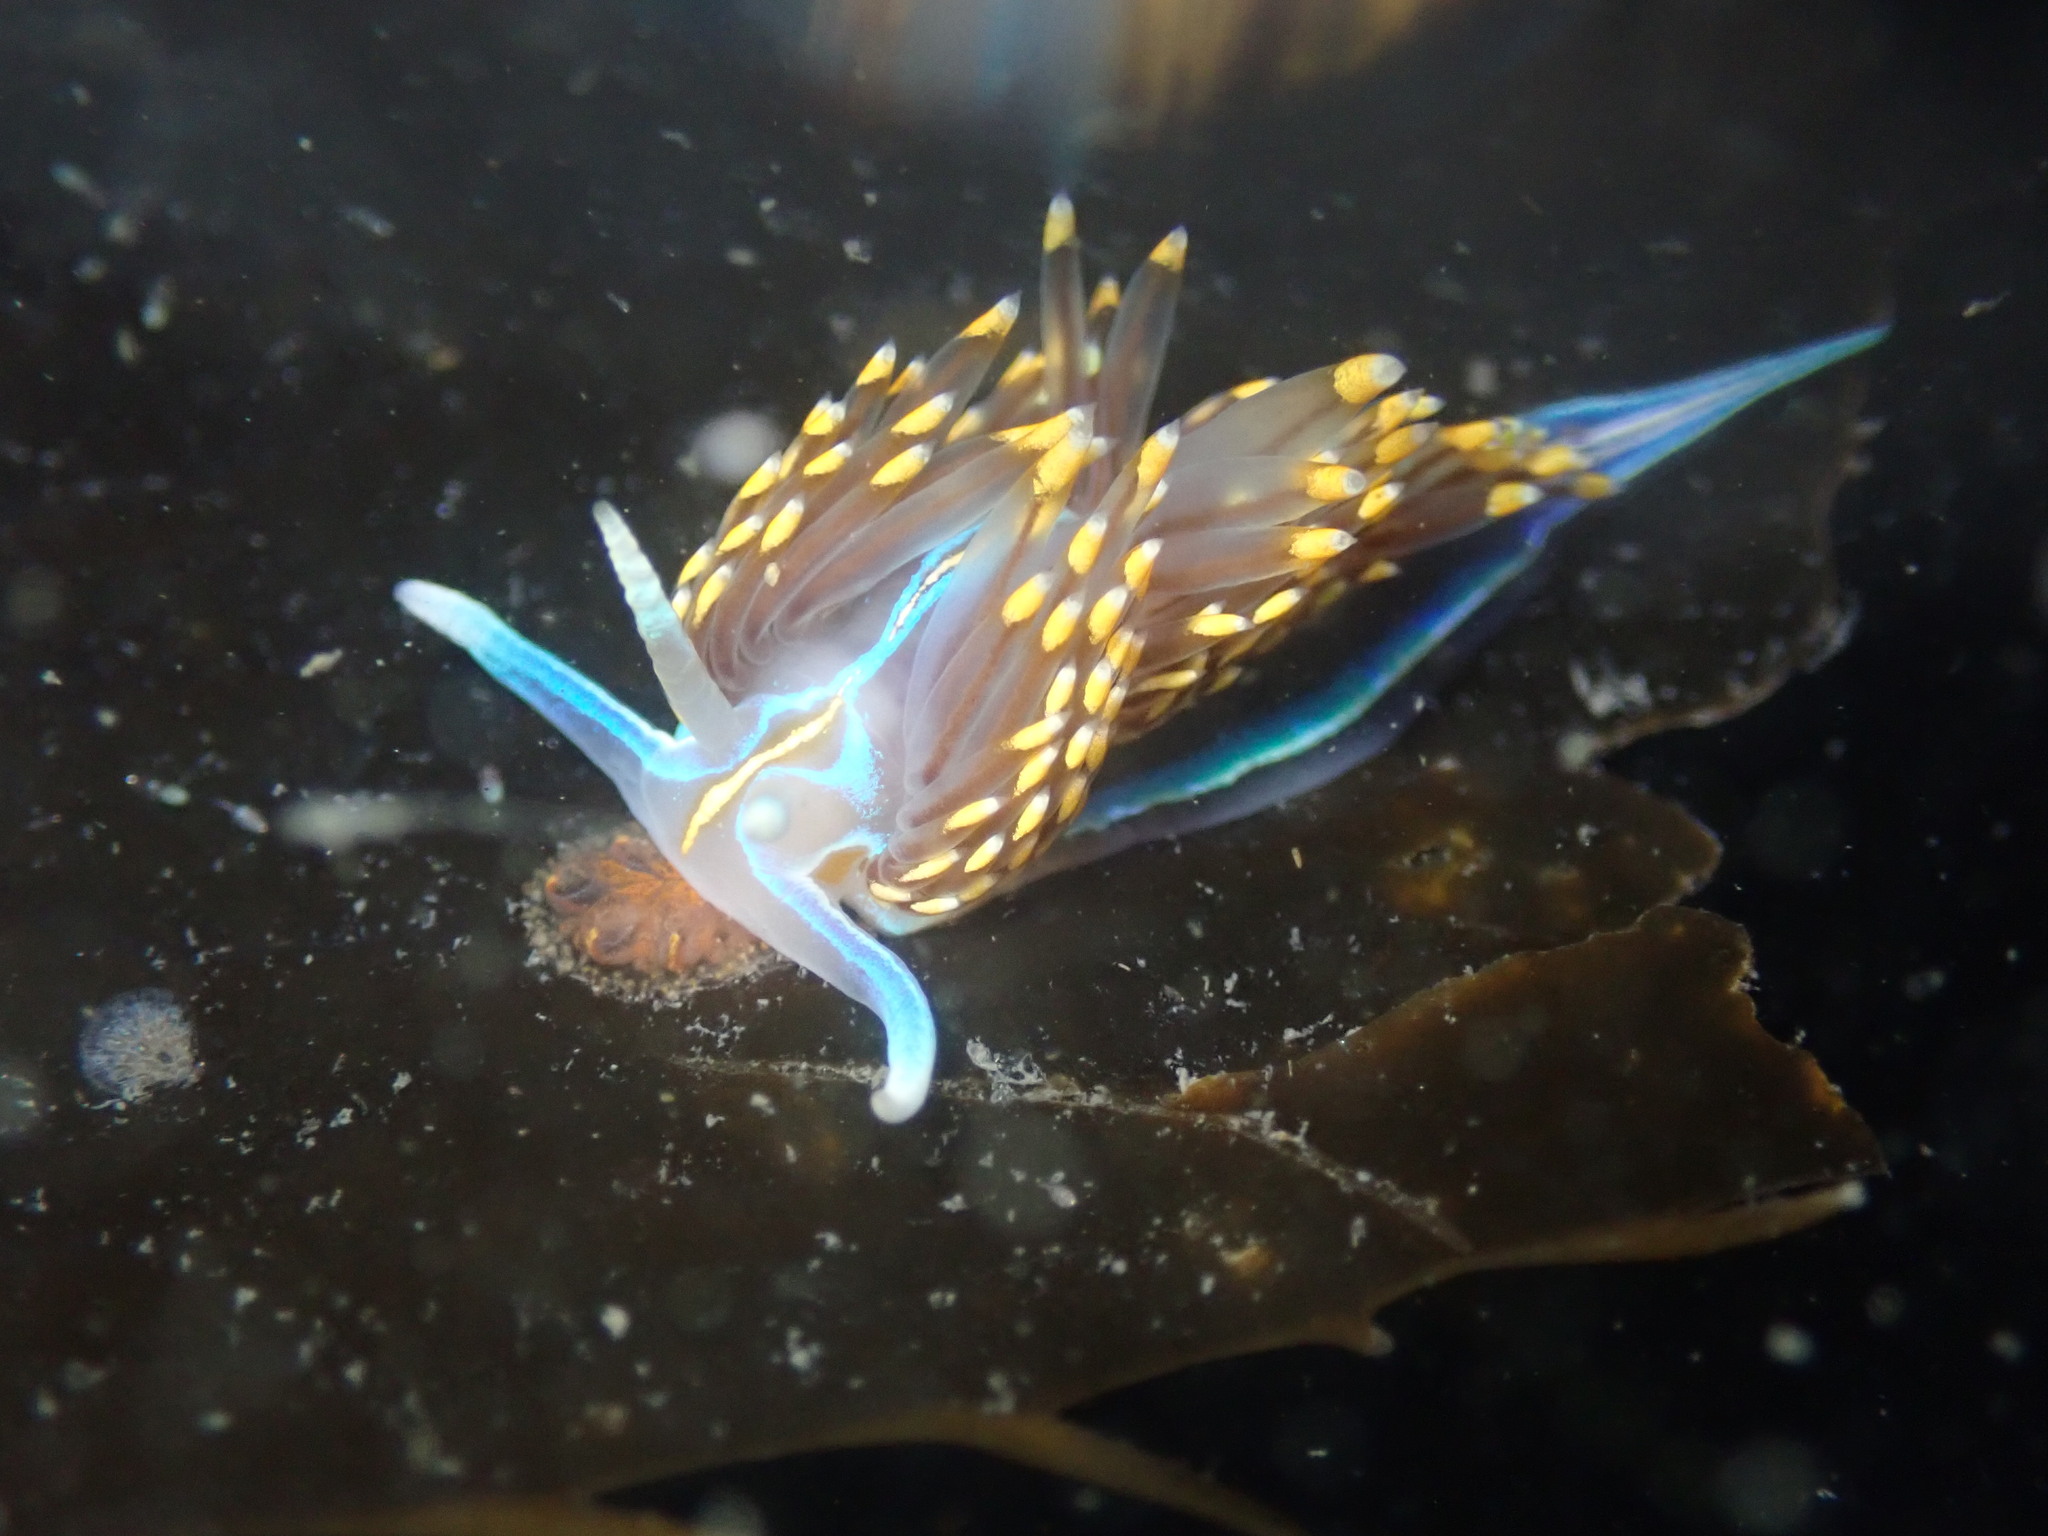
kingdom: Animalia
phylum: Mollusca
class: Gastropoda
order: Nudibranchia
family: Myrrhinidae
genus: Hermissenda
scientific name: Hermissenda opalescens
